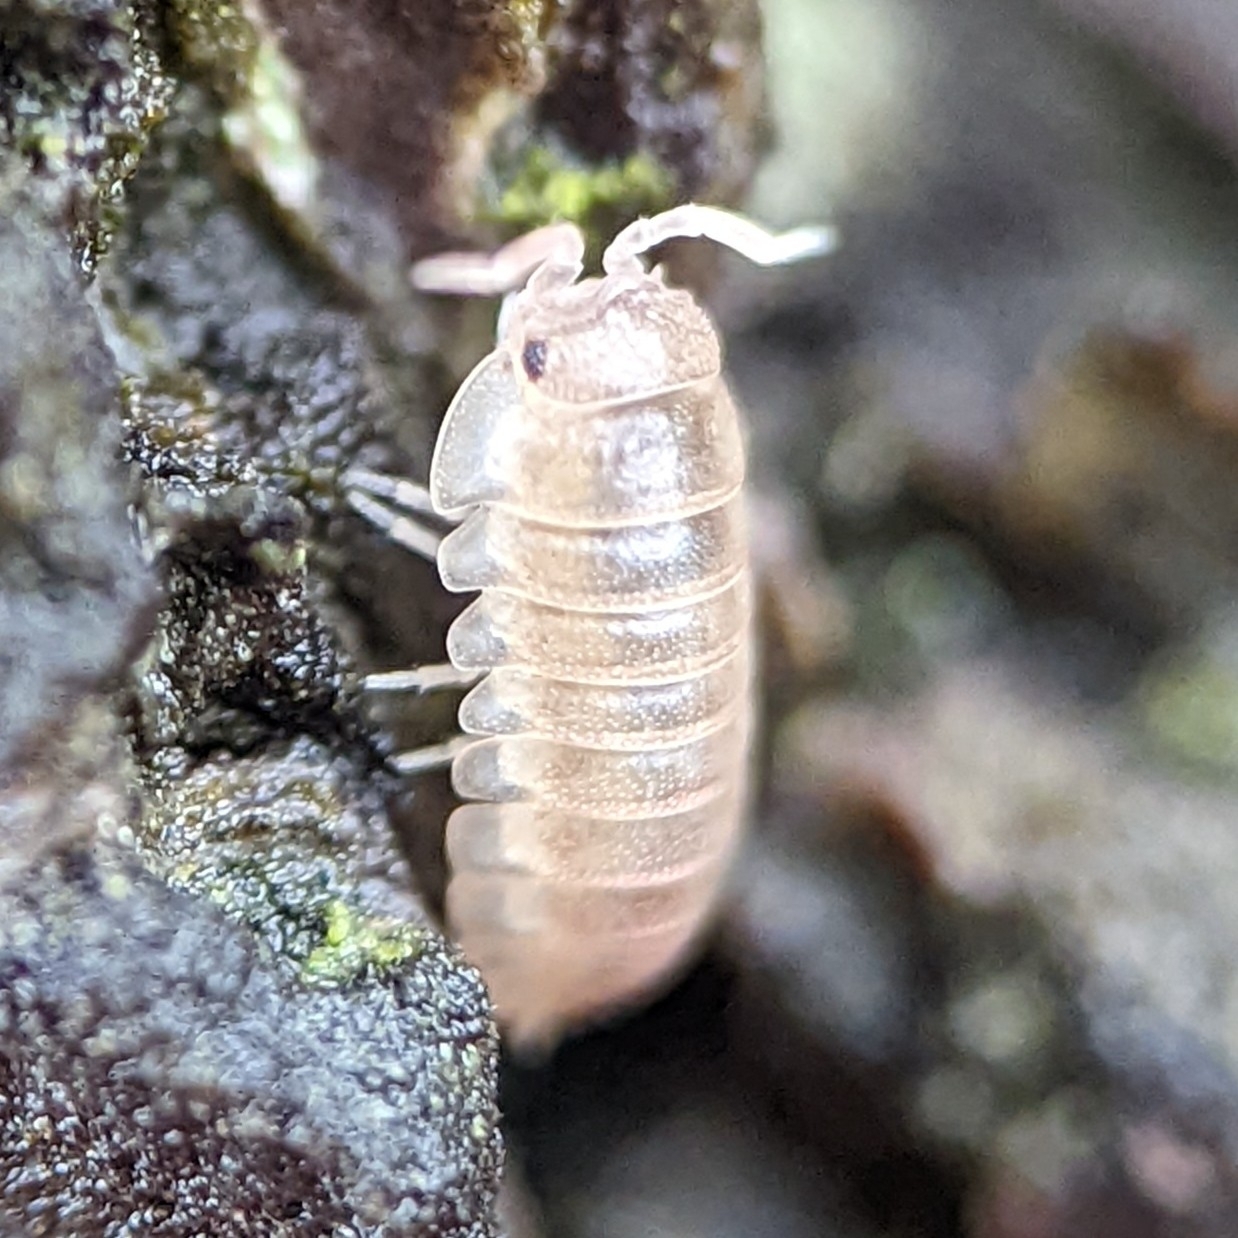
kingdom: Animalia
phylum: Arthropoda
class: Malacostraca
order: Isopoda
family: Armadillidiidae
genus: Armadillidium
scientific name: Armadillidium nasatum
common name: Isopod
